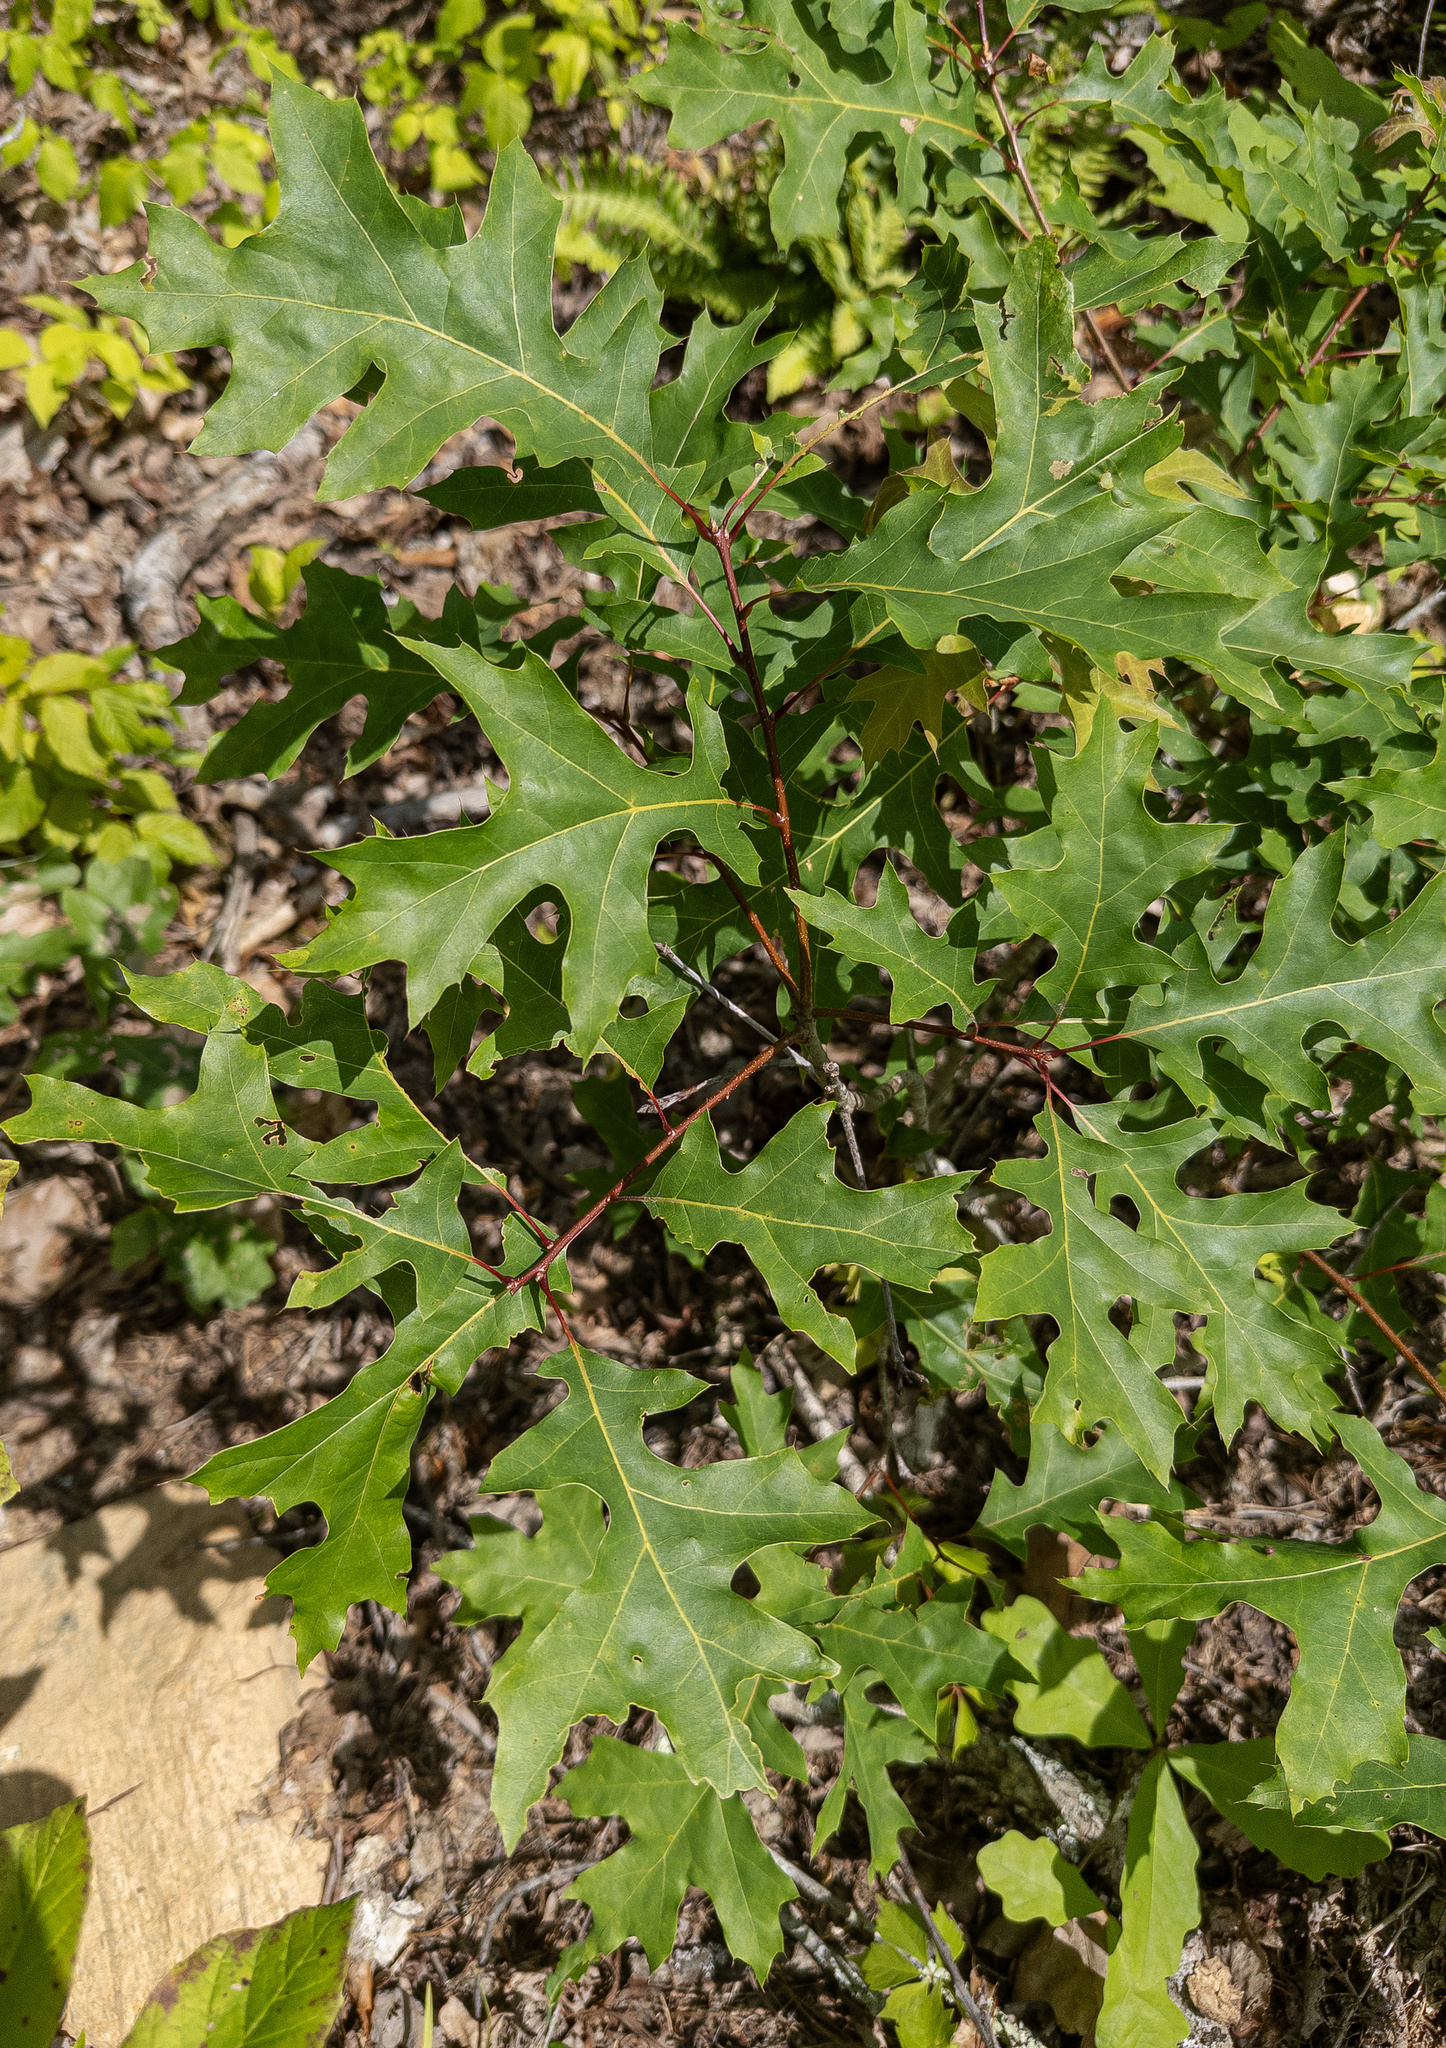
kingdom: Plantae
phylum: Tracheophyta
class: Magnoliopsida
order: Fagales
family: Fagaceae
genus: Quercus
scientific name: Quercus coccinea
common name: Scarlet oak
